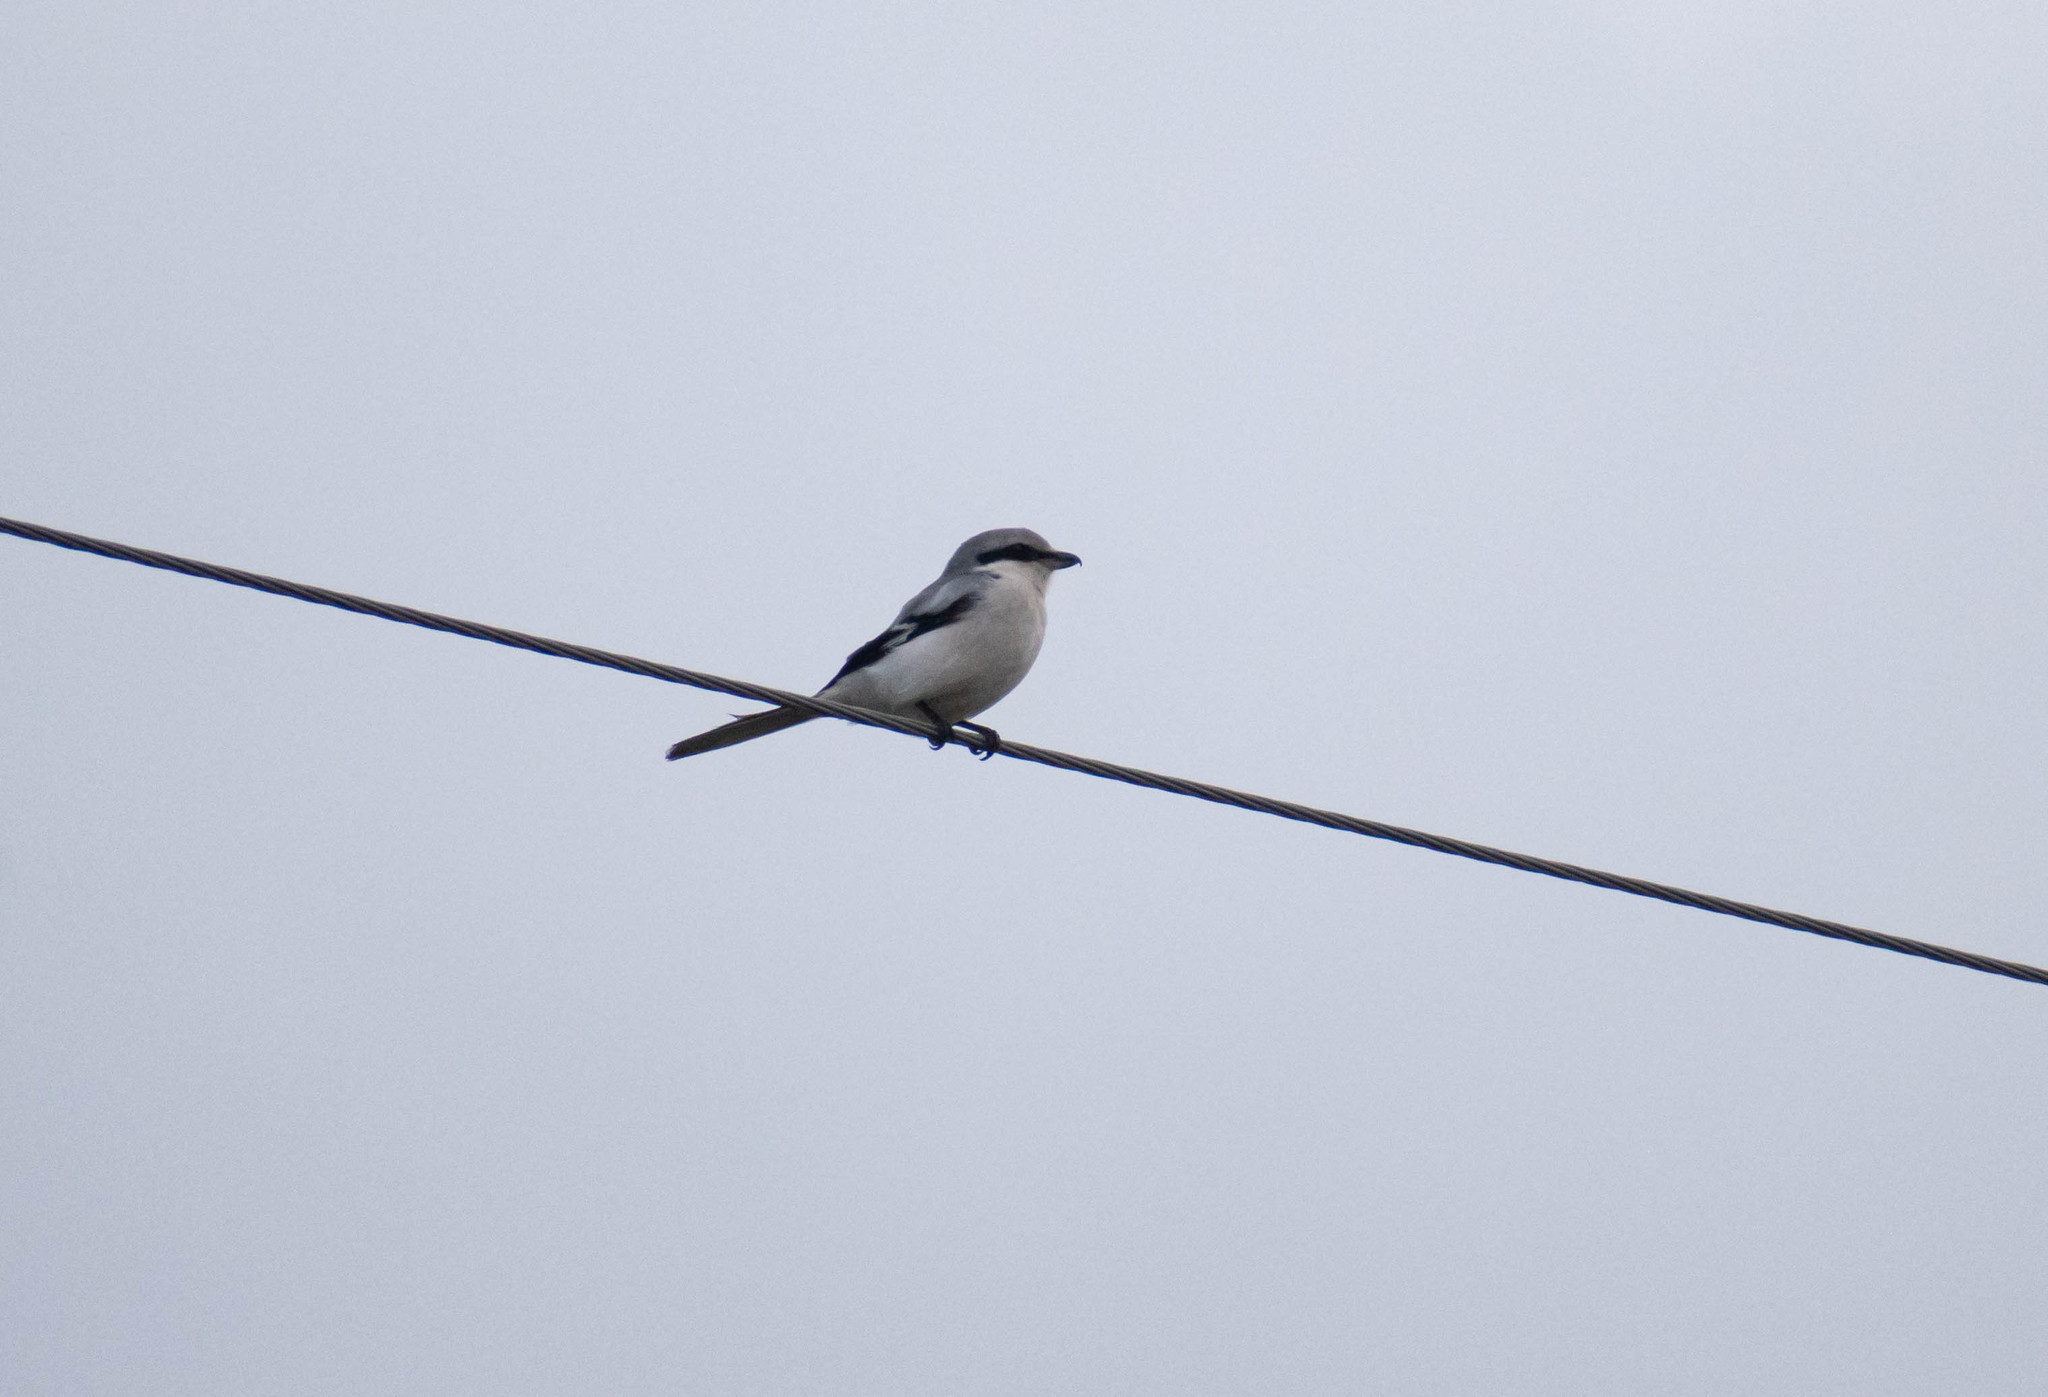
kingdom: Animalia
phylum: Chordata
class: Aves
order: Passeriformes
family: Laniidae
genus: Lanius
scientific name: Lanius excubitor
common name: Great grey shrike
